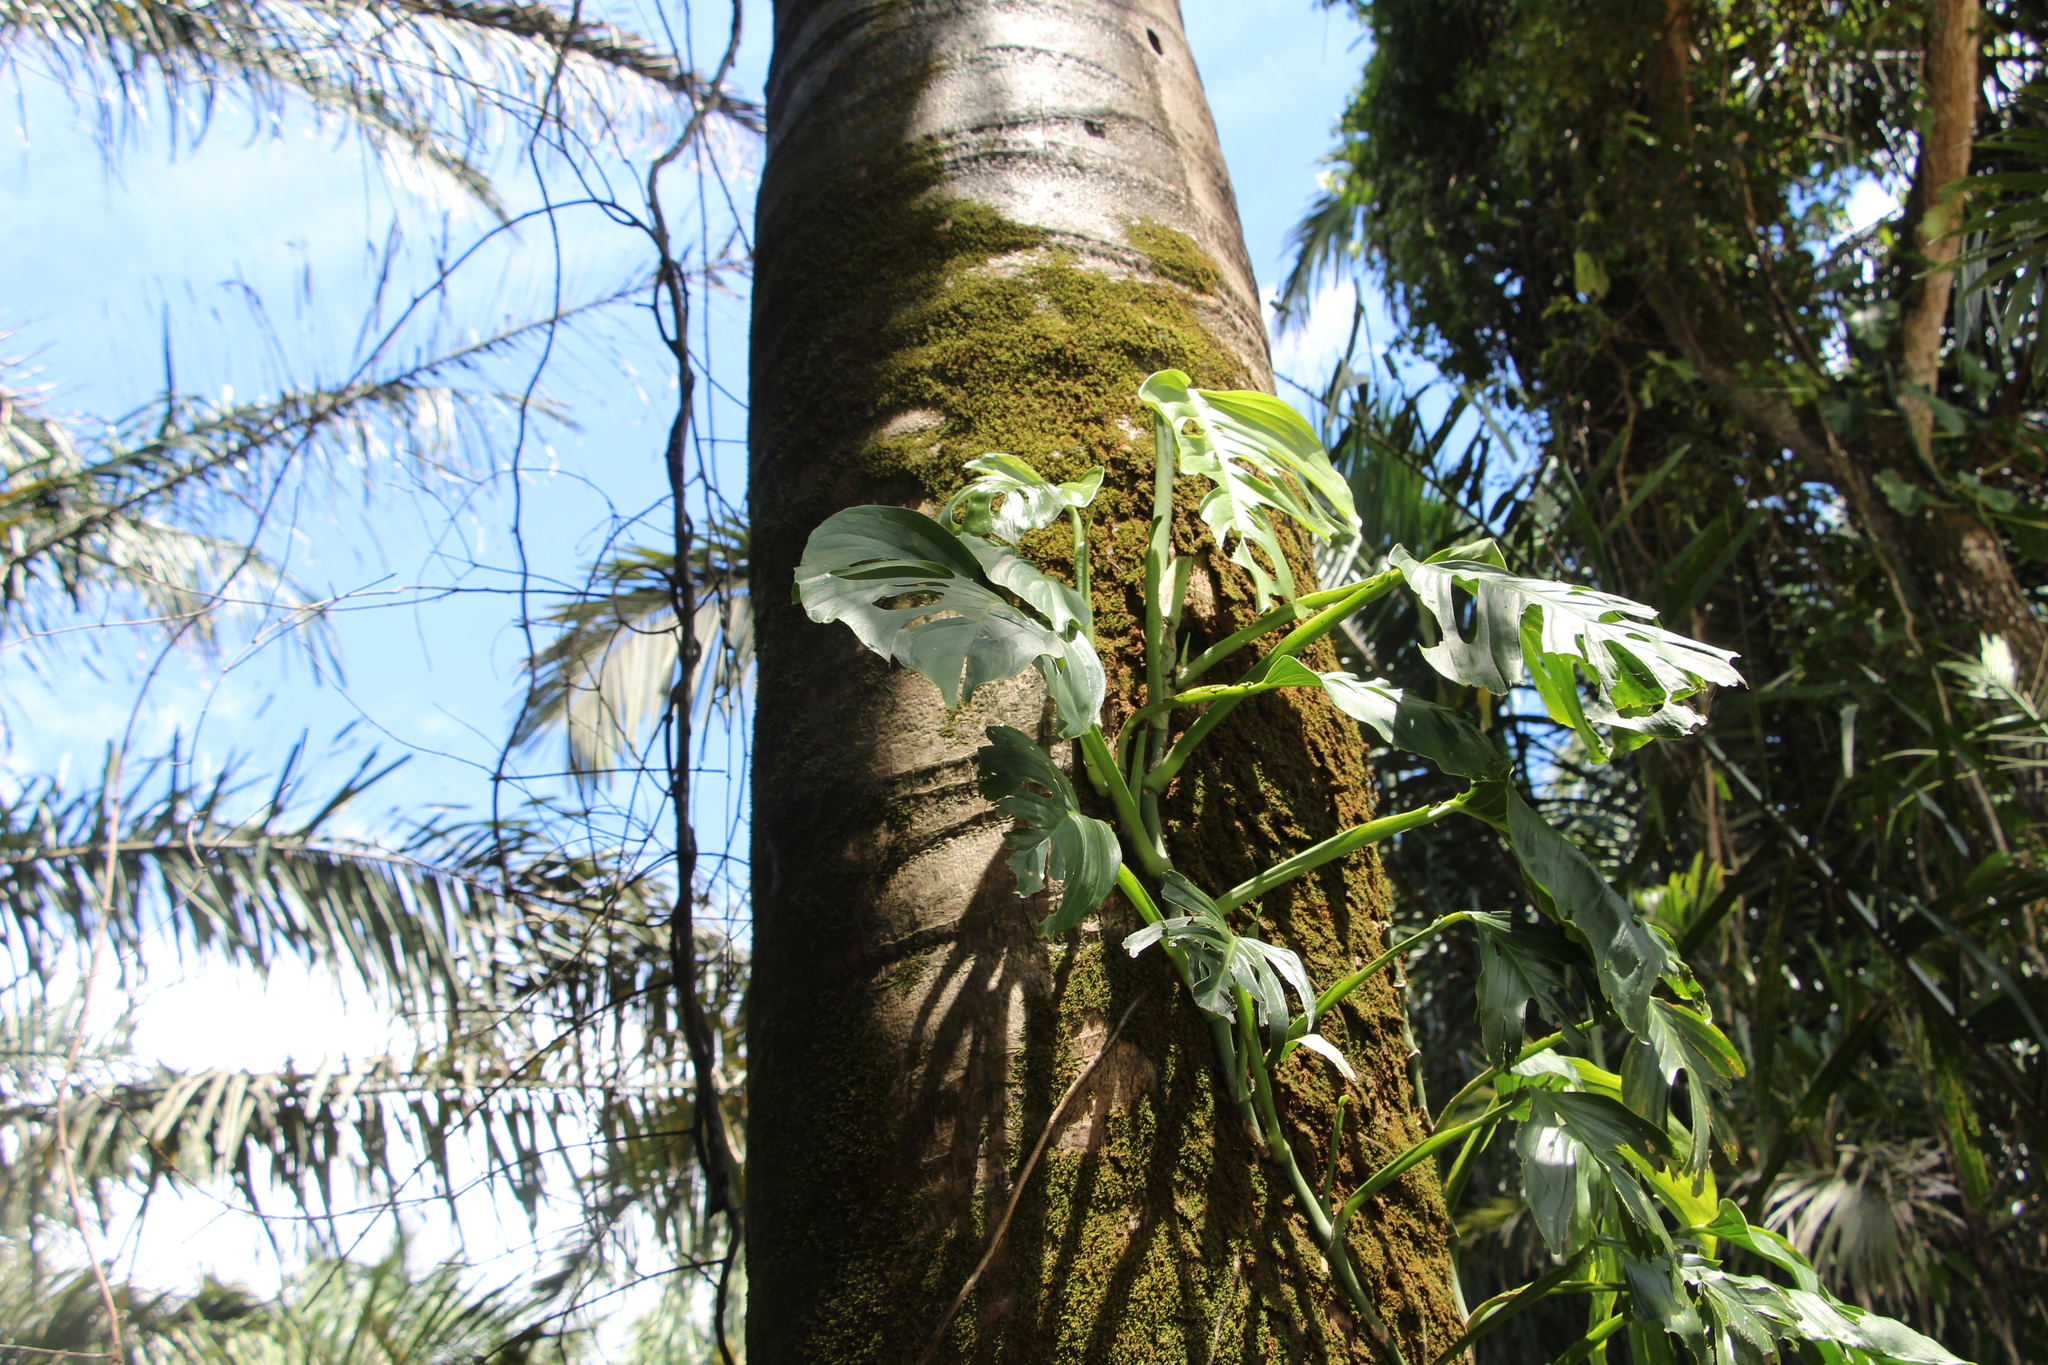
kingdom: Plantae
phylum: Tracheophyta
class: Liliopsida
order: Alismatales
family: Araceae
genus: Monstera
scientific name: Monstera adansonii
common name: Tarovine
